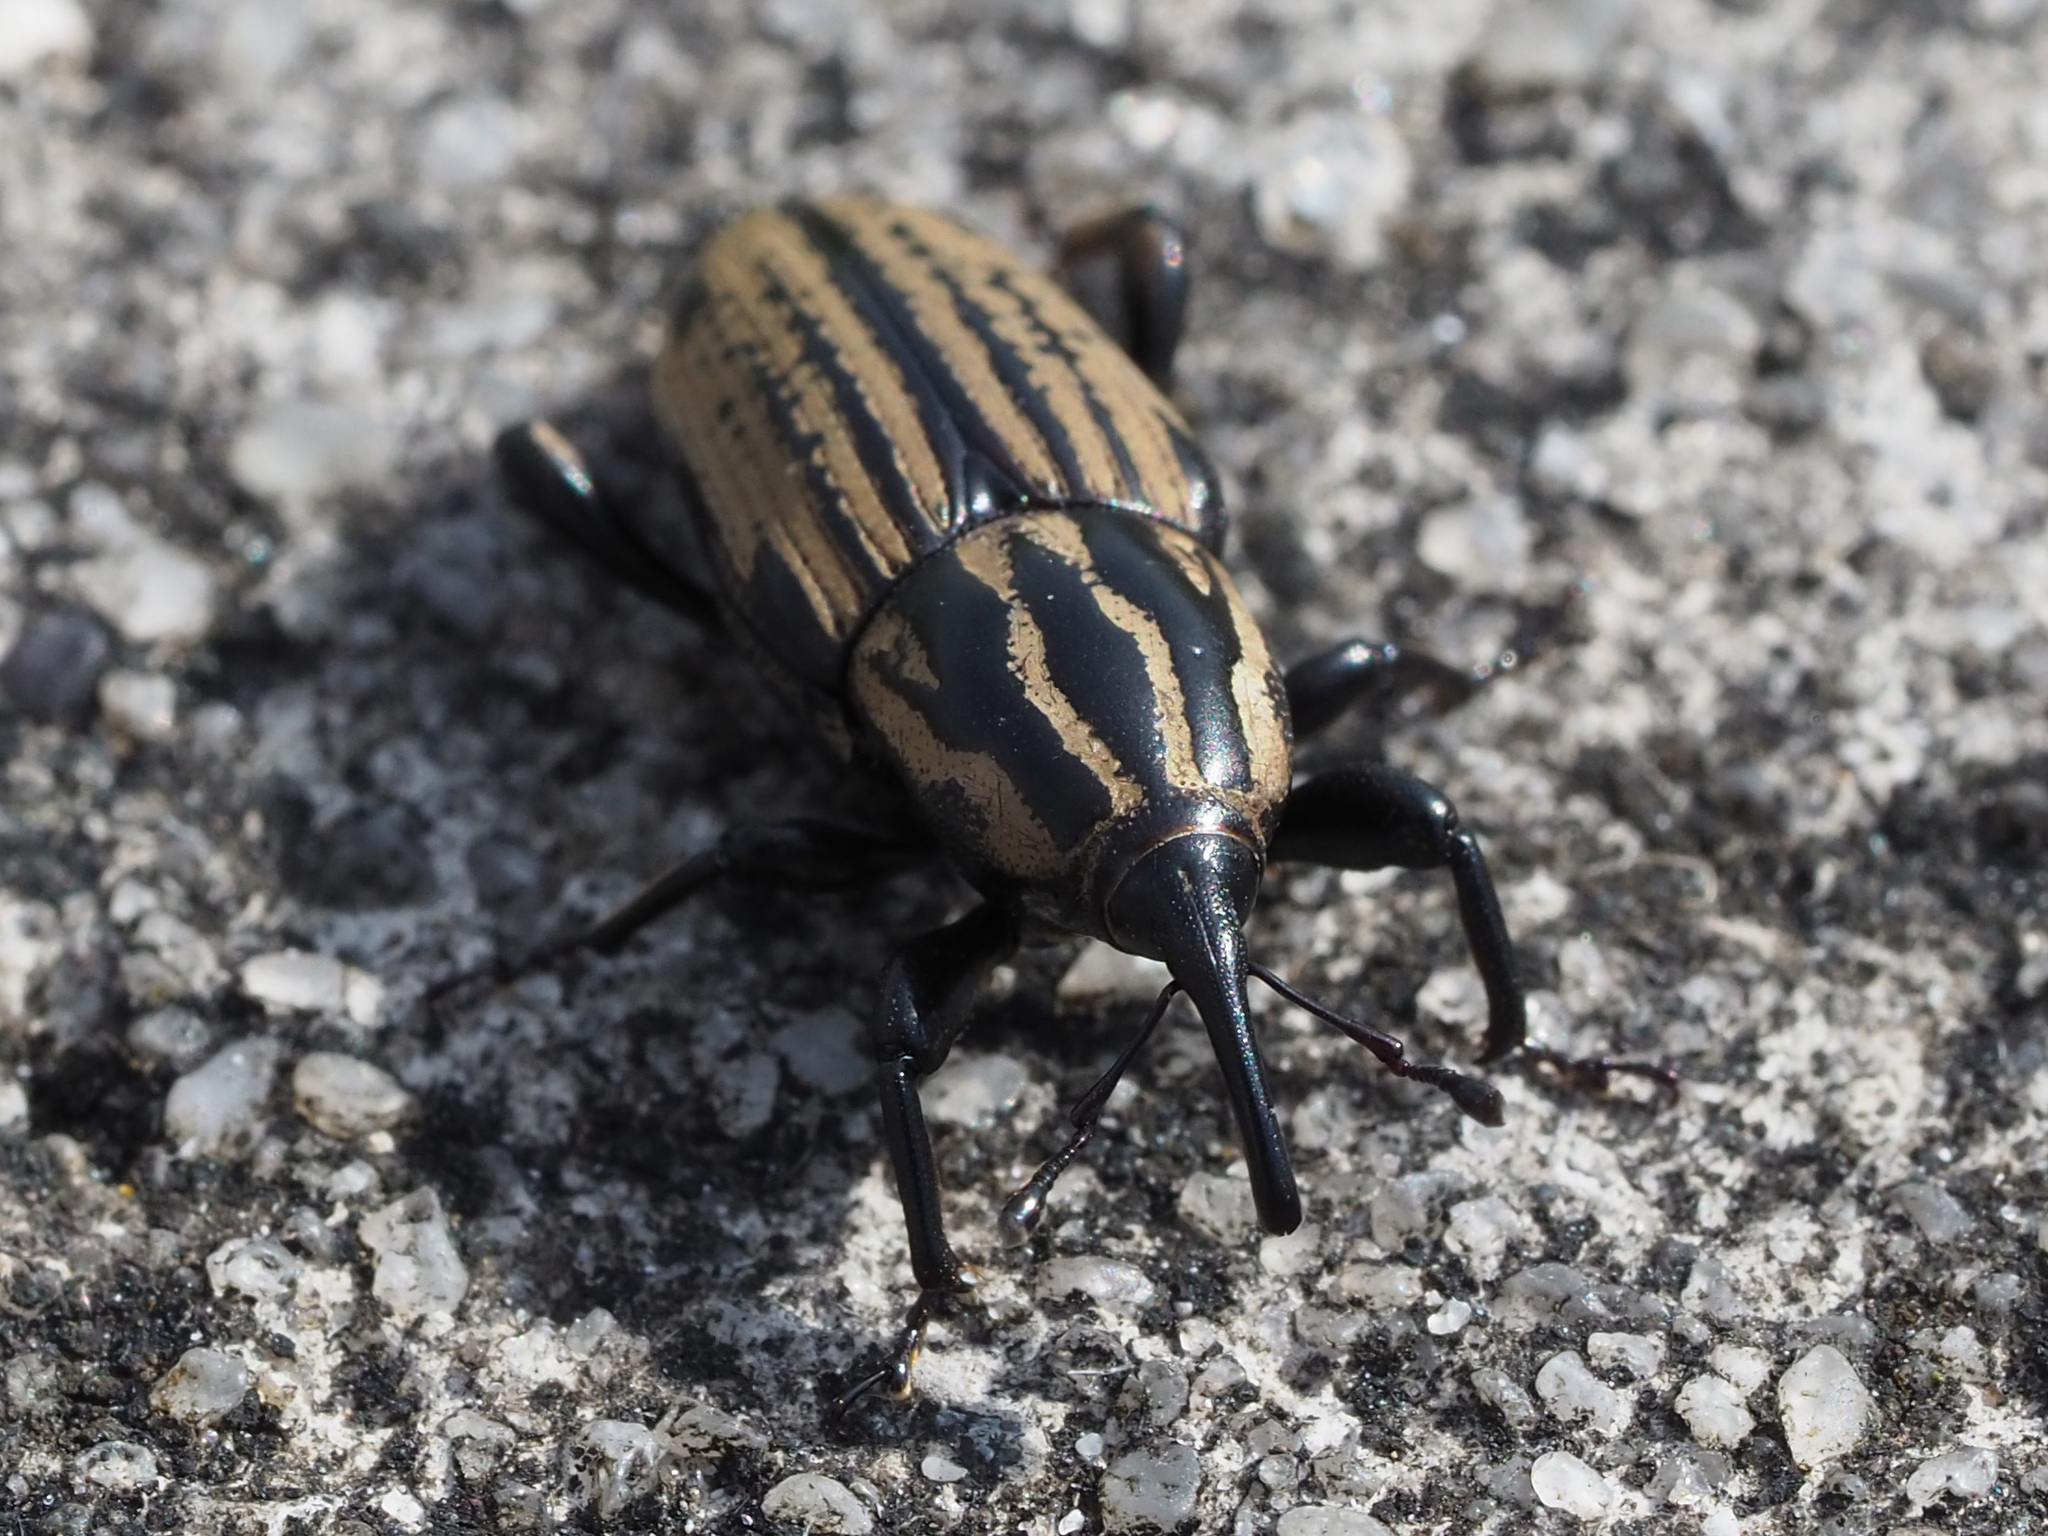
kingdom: Animalia
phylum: Arthropoda
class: Insecta
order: Coleoptera
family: Dryophthoridae
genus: Sphenophorus
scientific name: Sphenophorus australis
